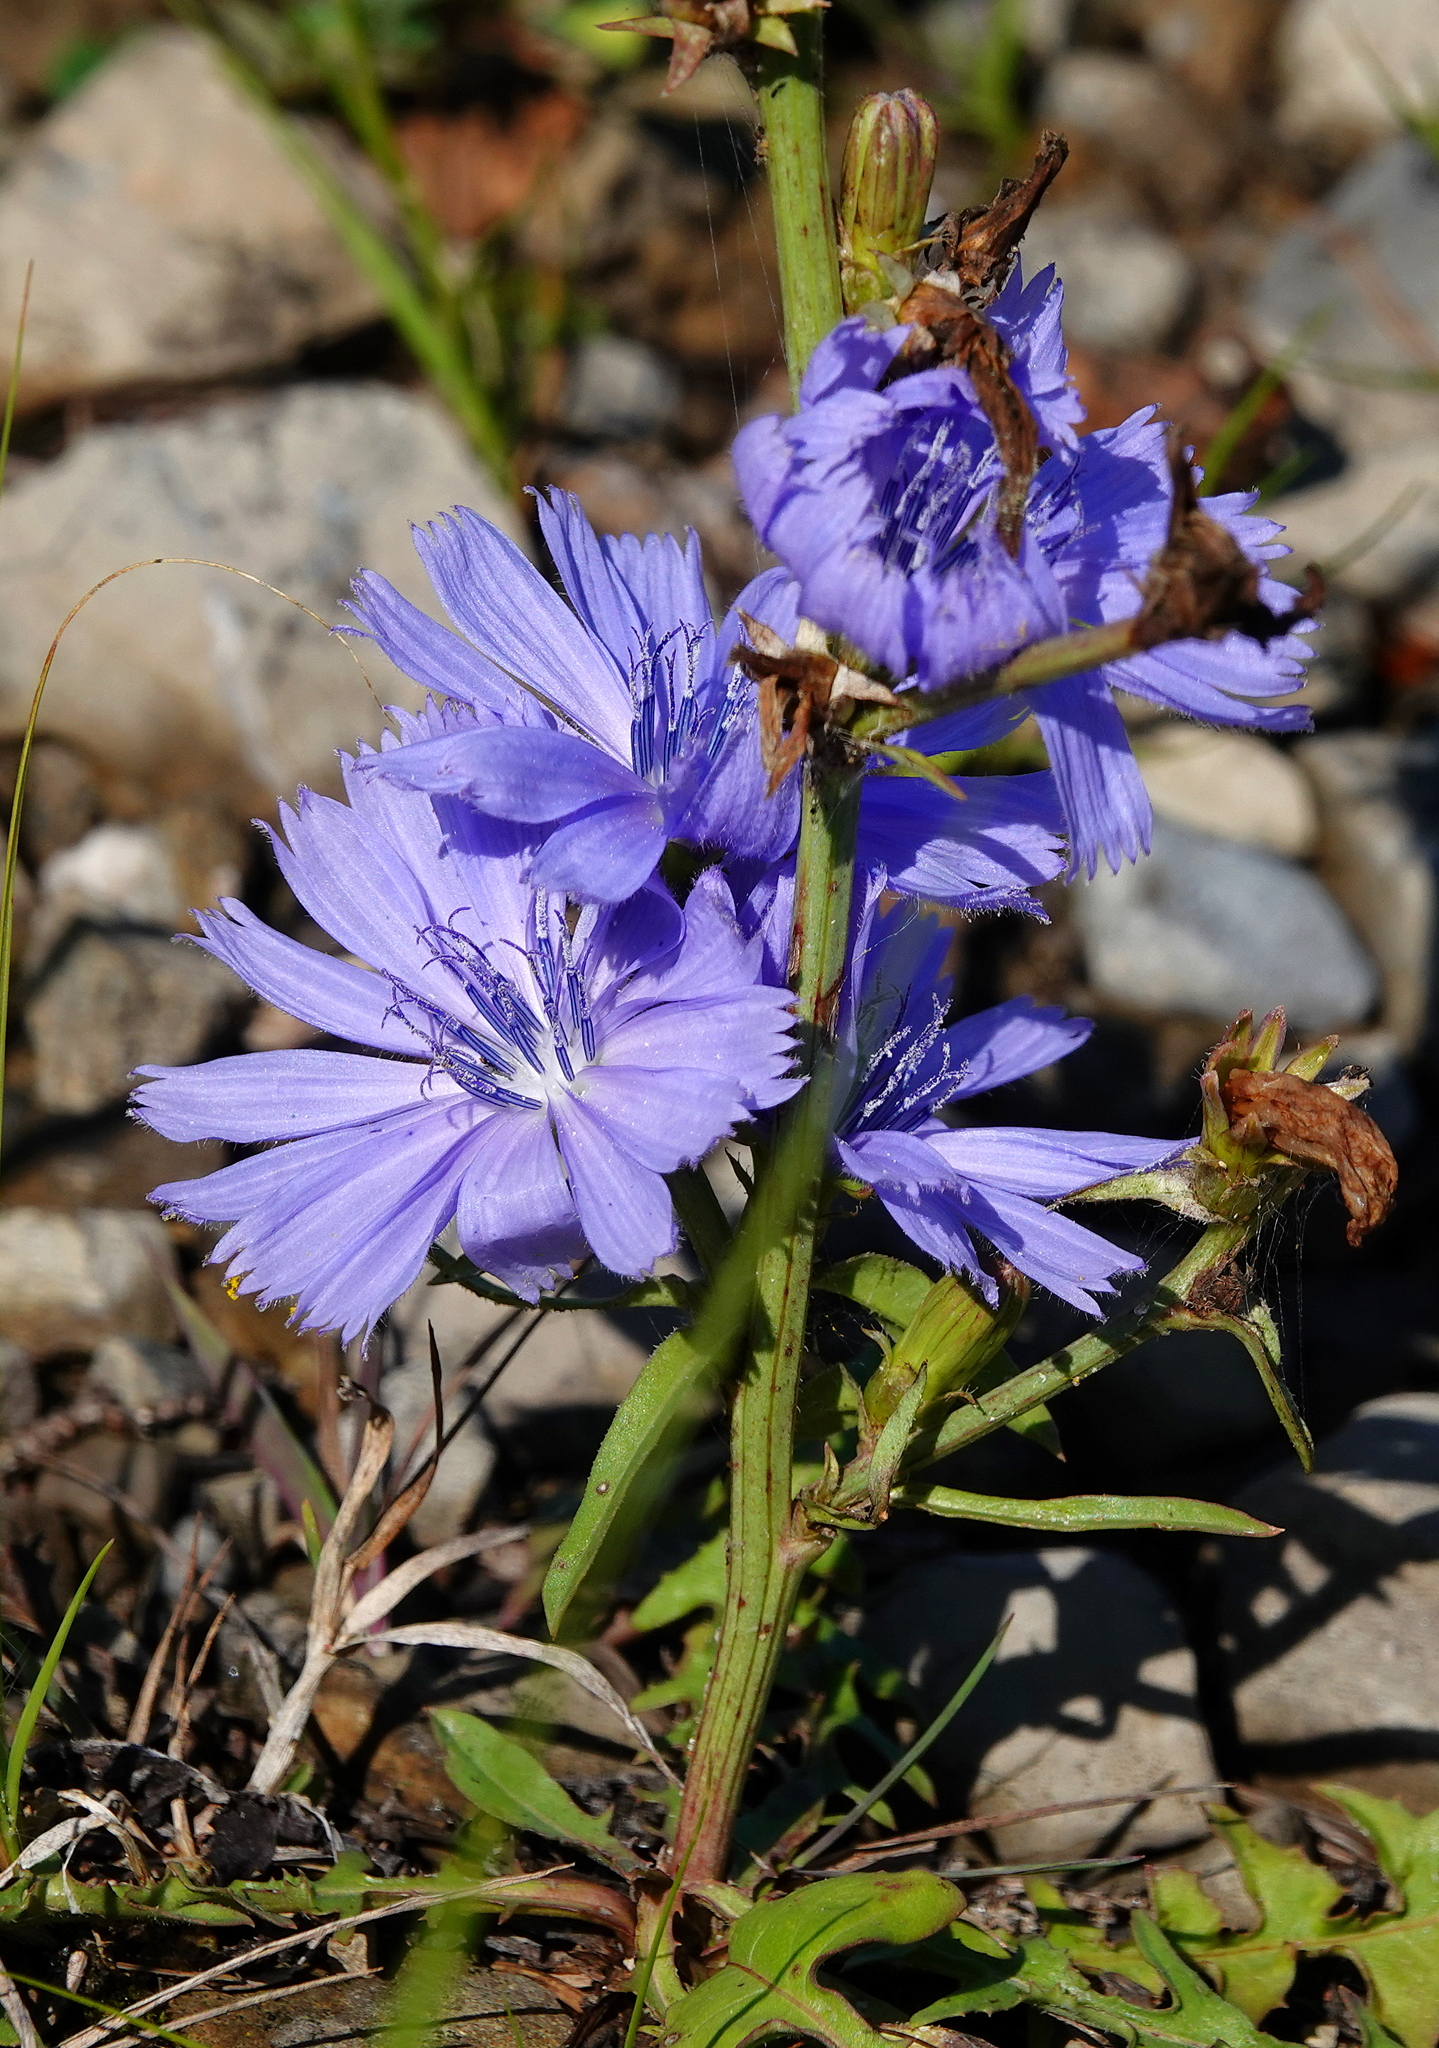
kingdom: Plantae
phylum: Tracheophyta
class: Magnoliopsida
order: Asterales
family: Asteraceae
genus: Cichorium
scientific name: Cichorium intybus
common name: Chicory
